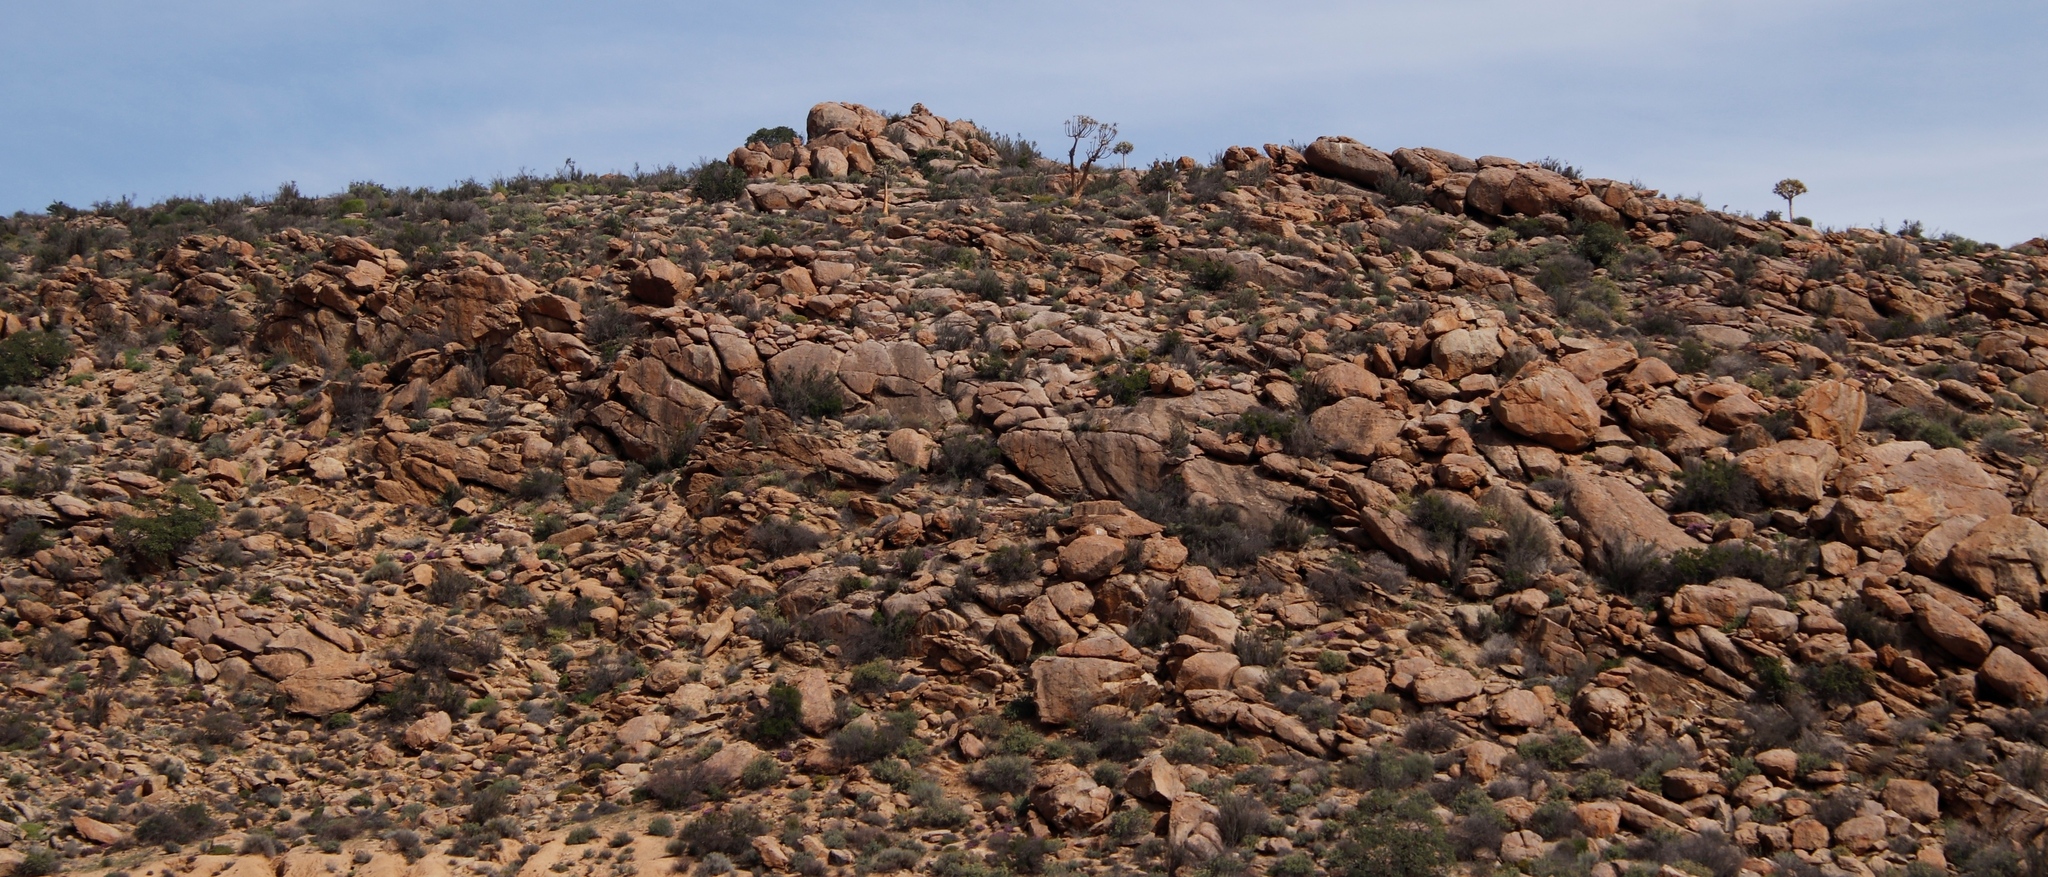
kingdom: Plantae
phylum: Tracheophyta
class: Liliopsida
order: Asparagales
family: Asphodelaceae
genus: Aloidendron
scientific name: Aloidendron dichotomum
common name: Quiver tree
